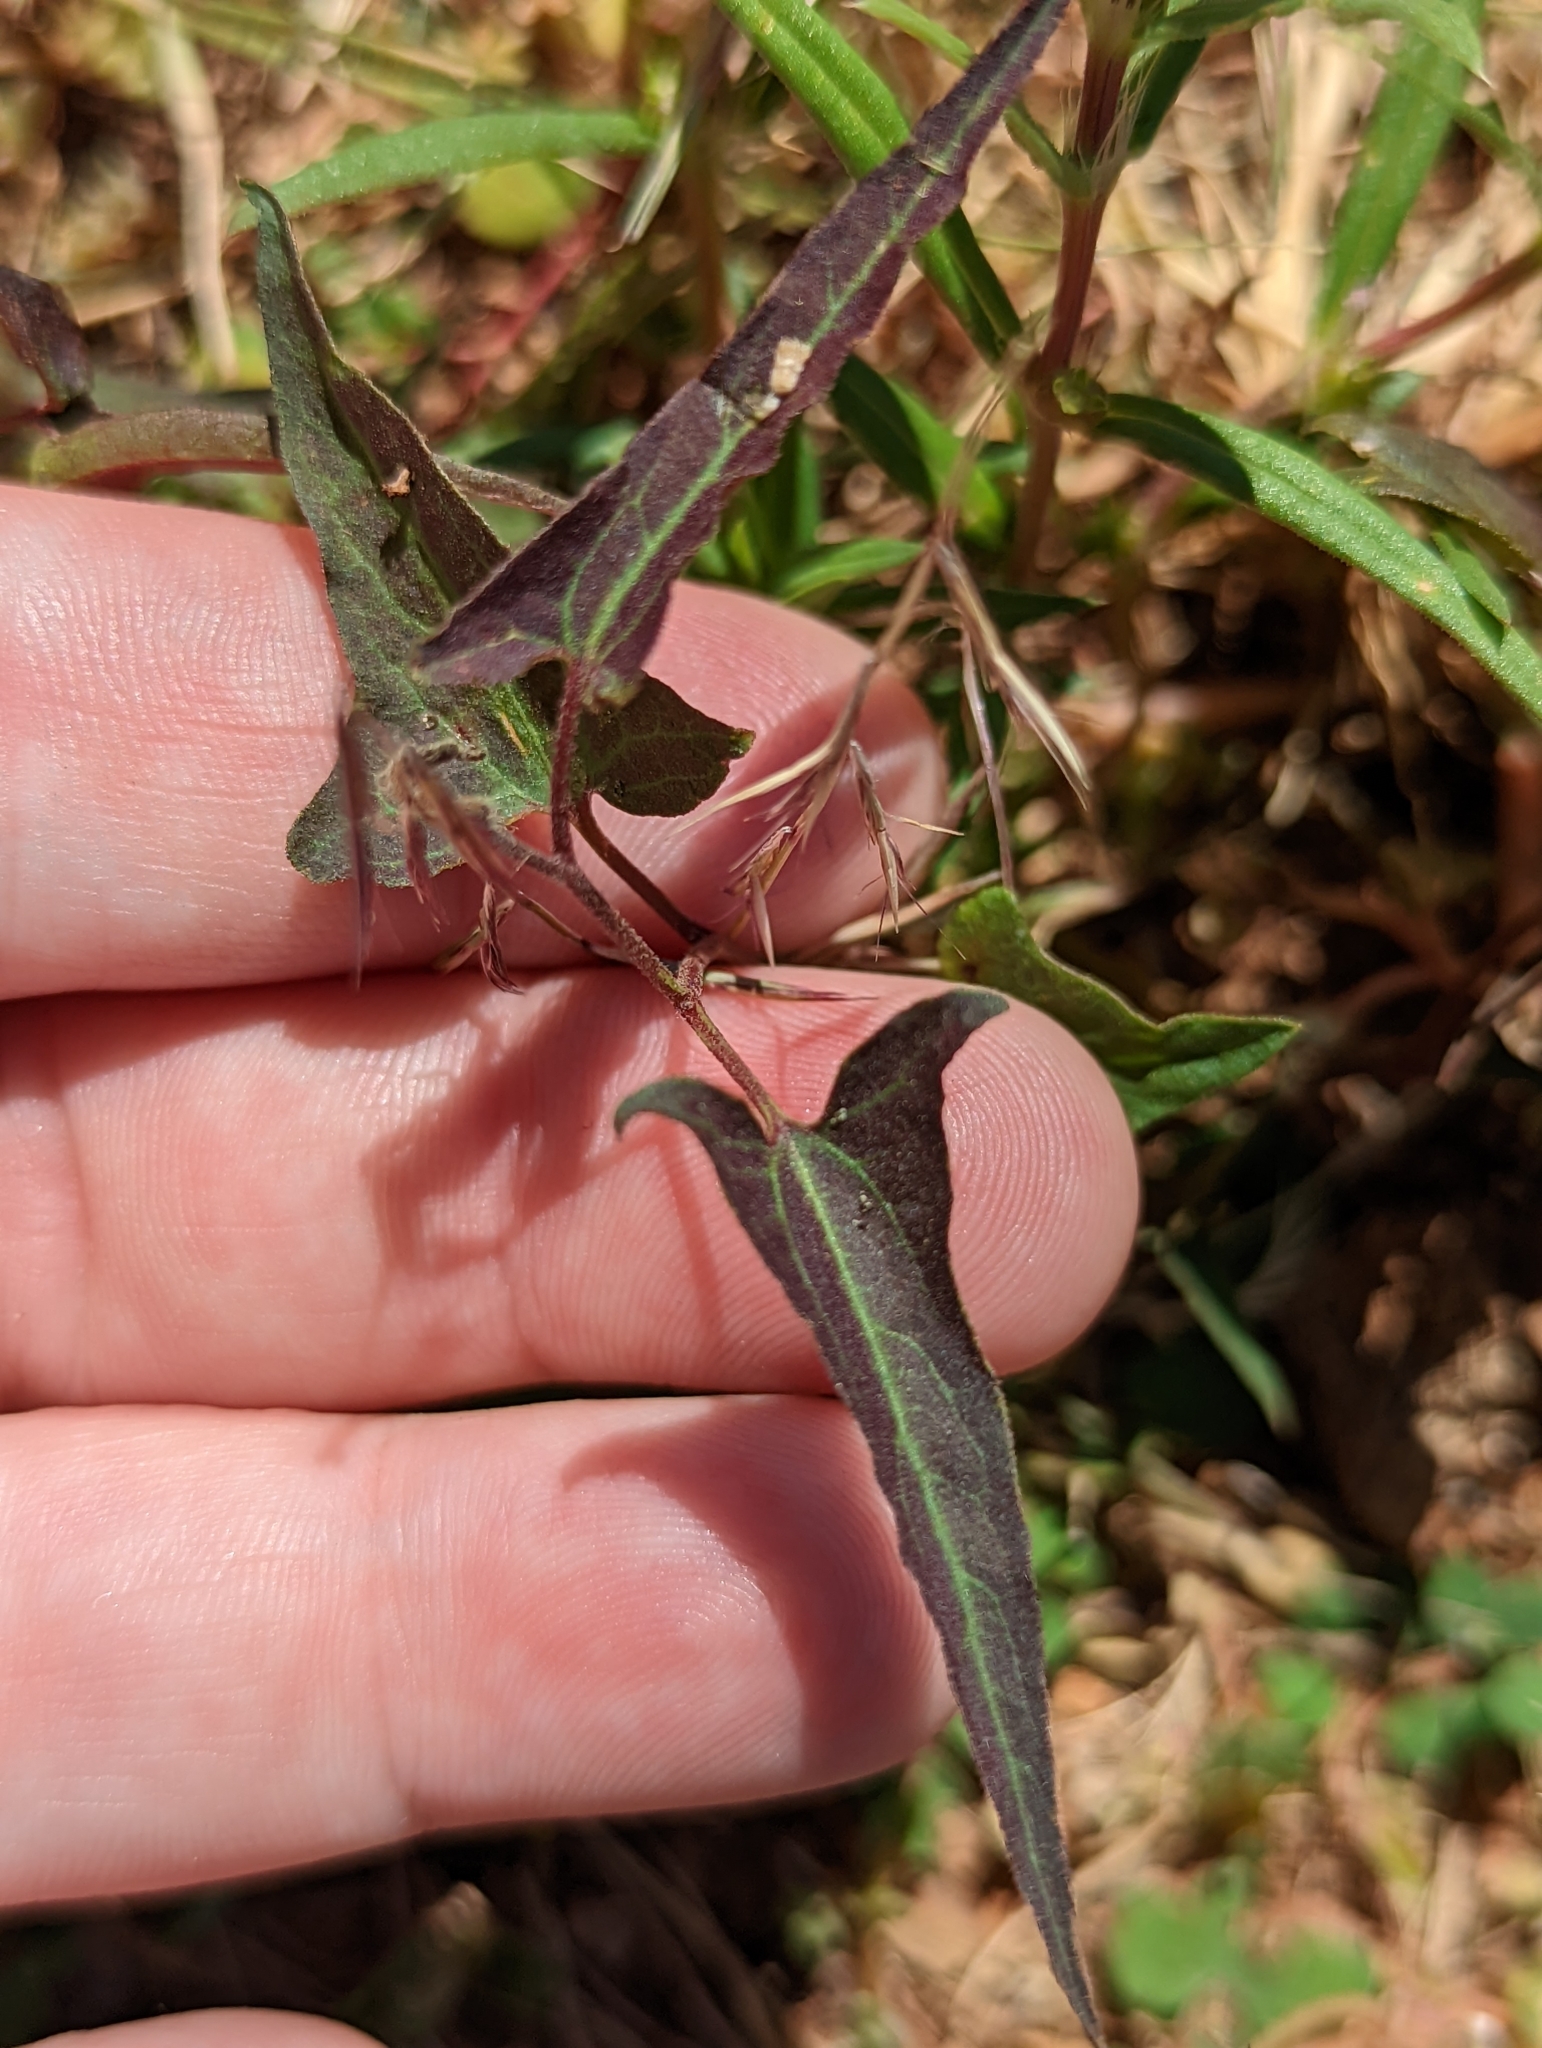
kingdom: Plantae
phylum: Tracheophyta
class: Magnoliopsida
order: Piperales
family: Aristolochiaceae
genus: Aristolochia
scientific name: Aristolochia watsonii
